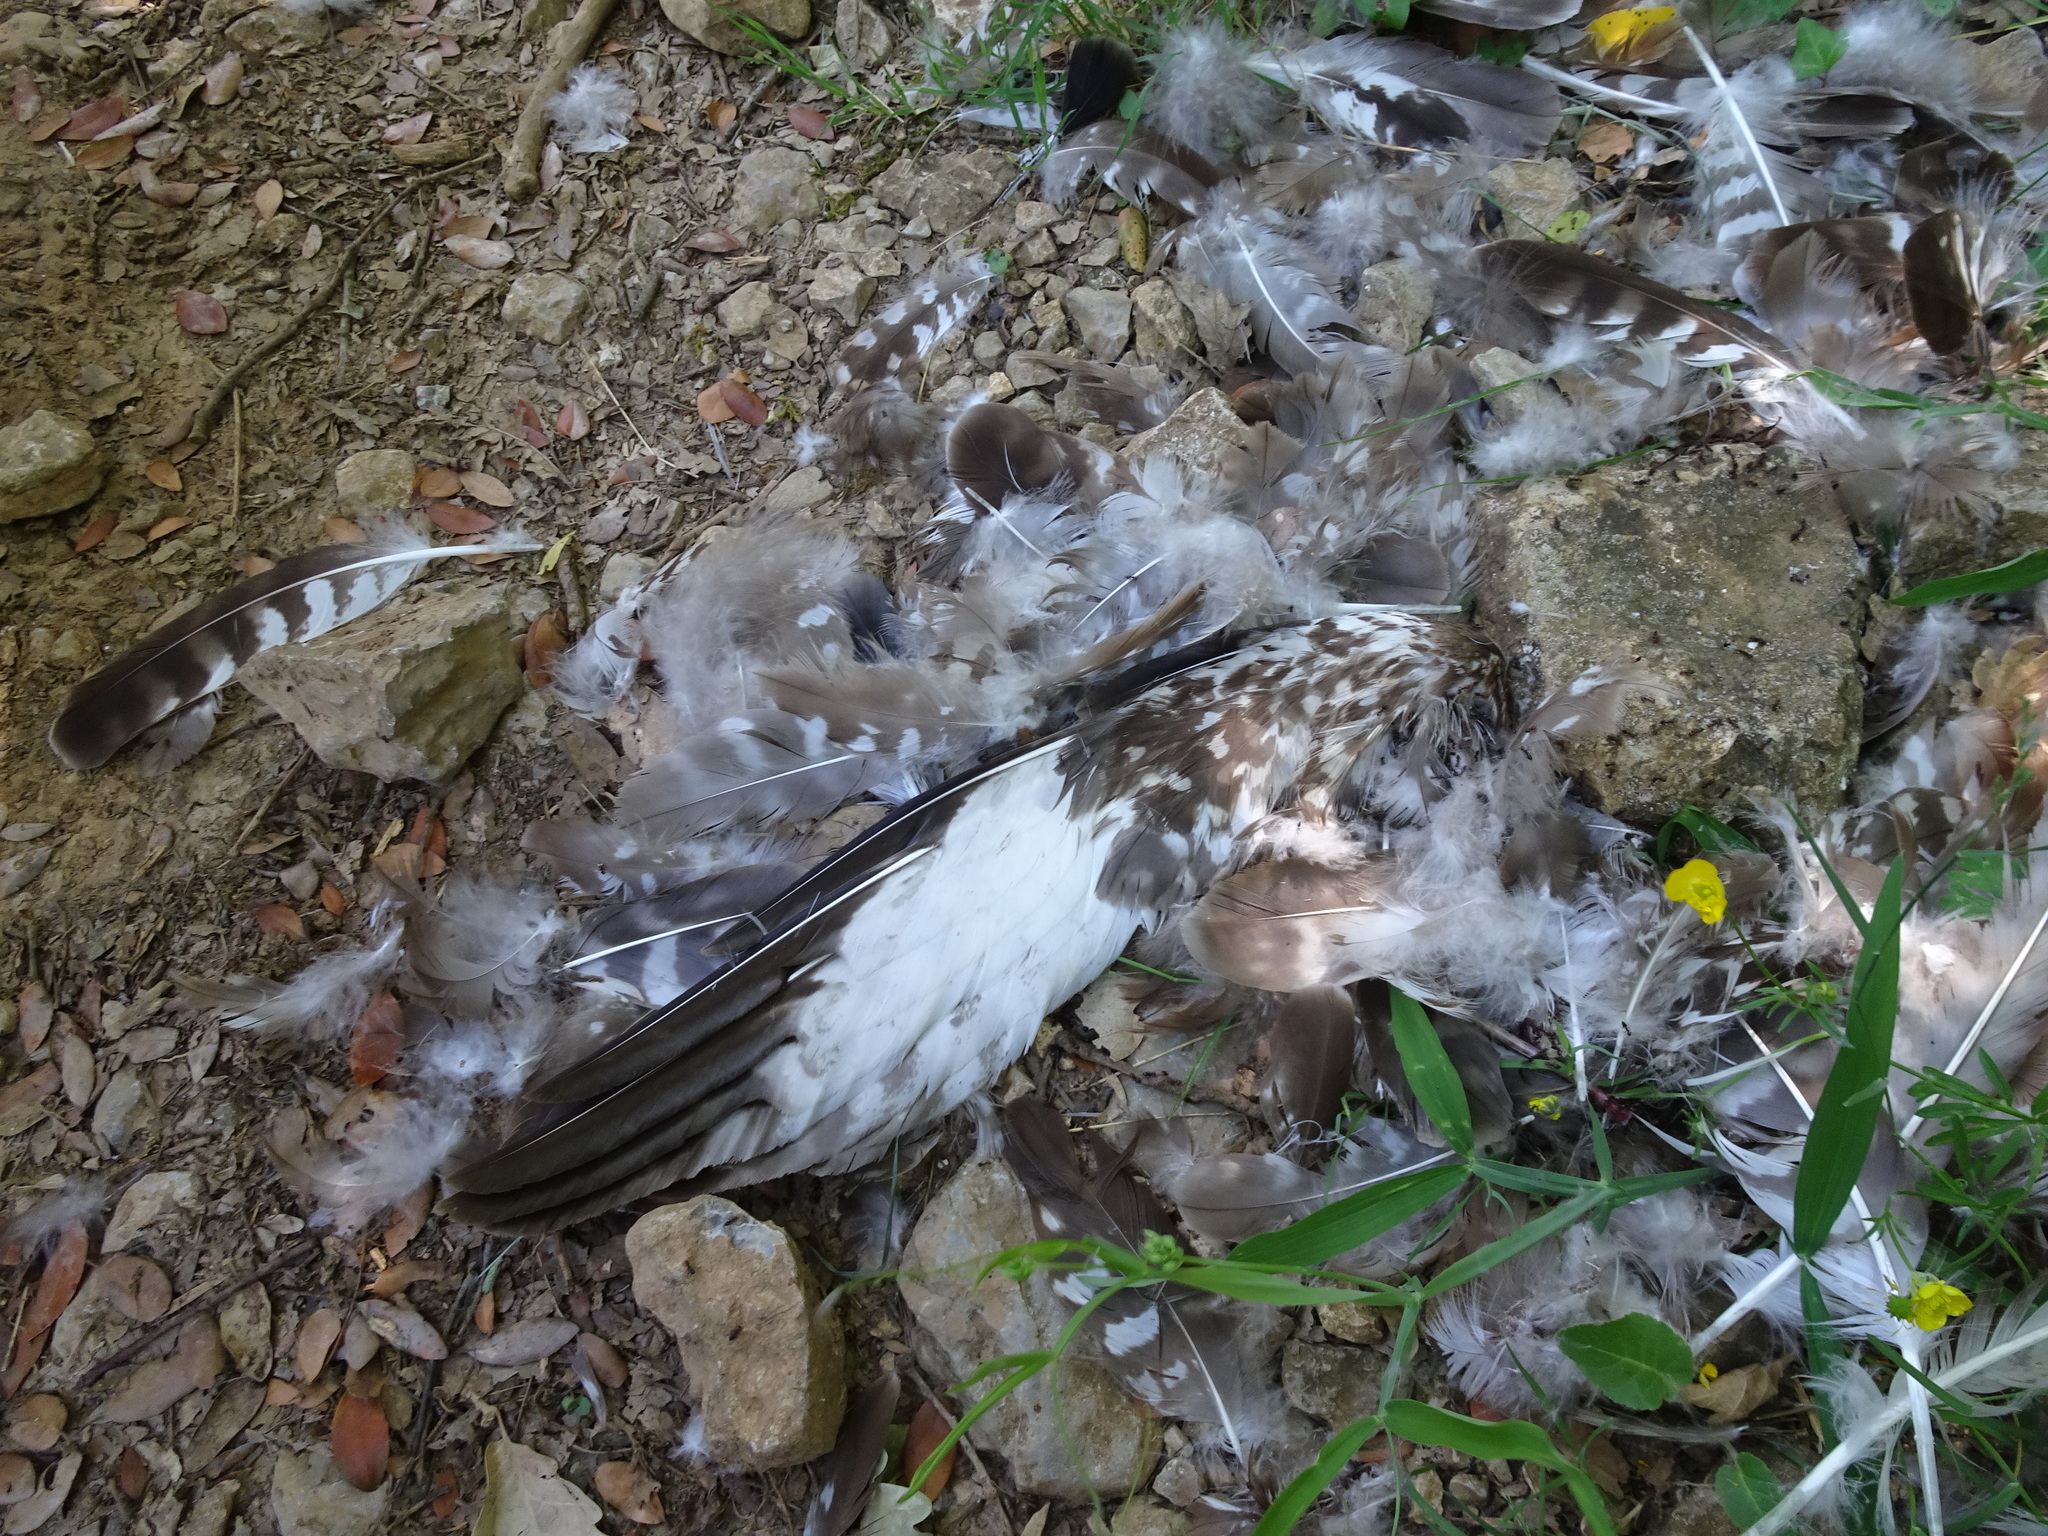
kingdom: Animalia
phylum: Chordata
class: Aves
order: Accipitriformes
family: Accipitridae
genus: Buteo
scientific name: Buteo buteo
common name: Common buzzard
